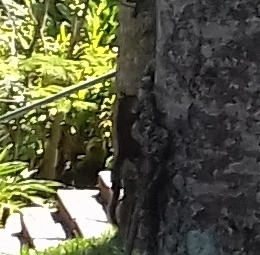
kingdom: Animalia
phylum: Chordata
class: Mammalia
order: Rodentia
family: Sciuridae
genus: Sciurus
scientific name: Sciurus aestuans
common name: Guianan squirrel
